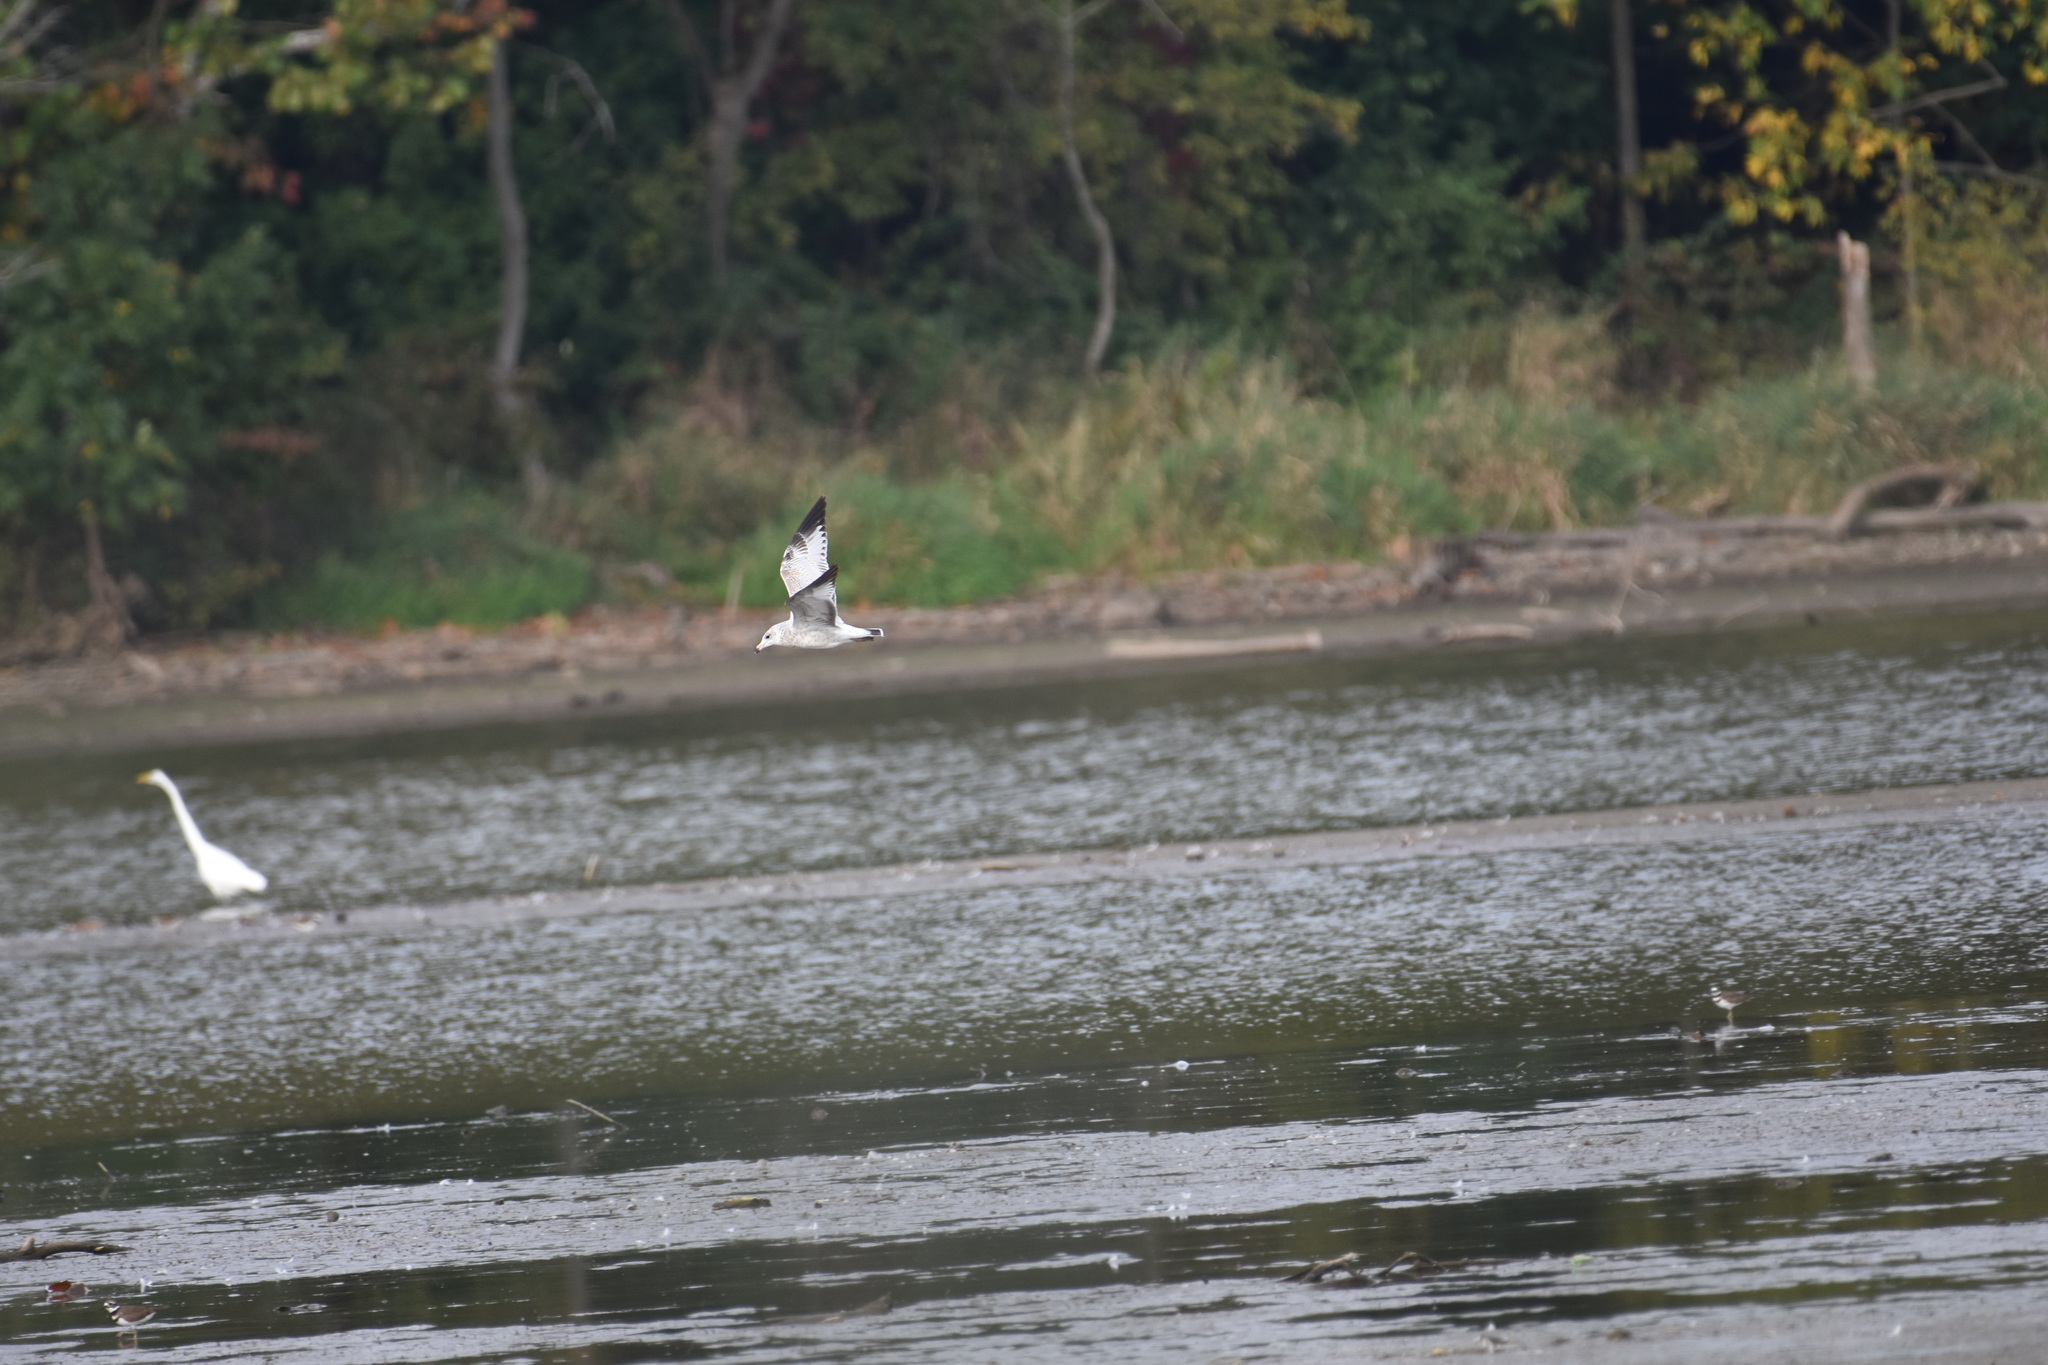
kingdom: Animalia
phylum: Chordata
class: Aves
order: Charadriiformes
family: Laridae
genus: Larus
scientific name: Larus delawarensis
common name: Ring-billed gull
